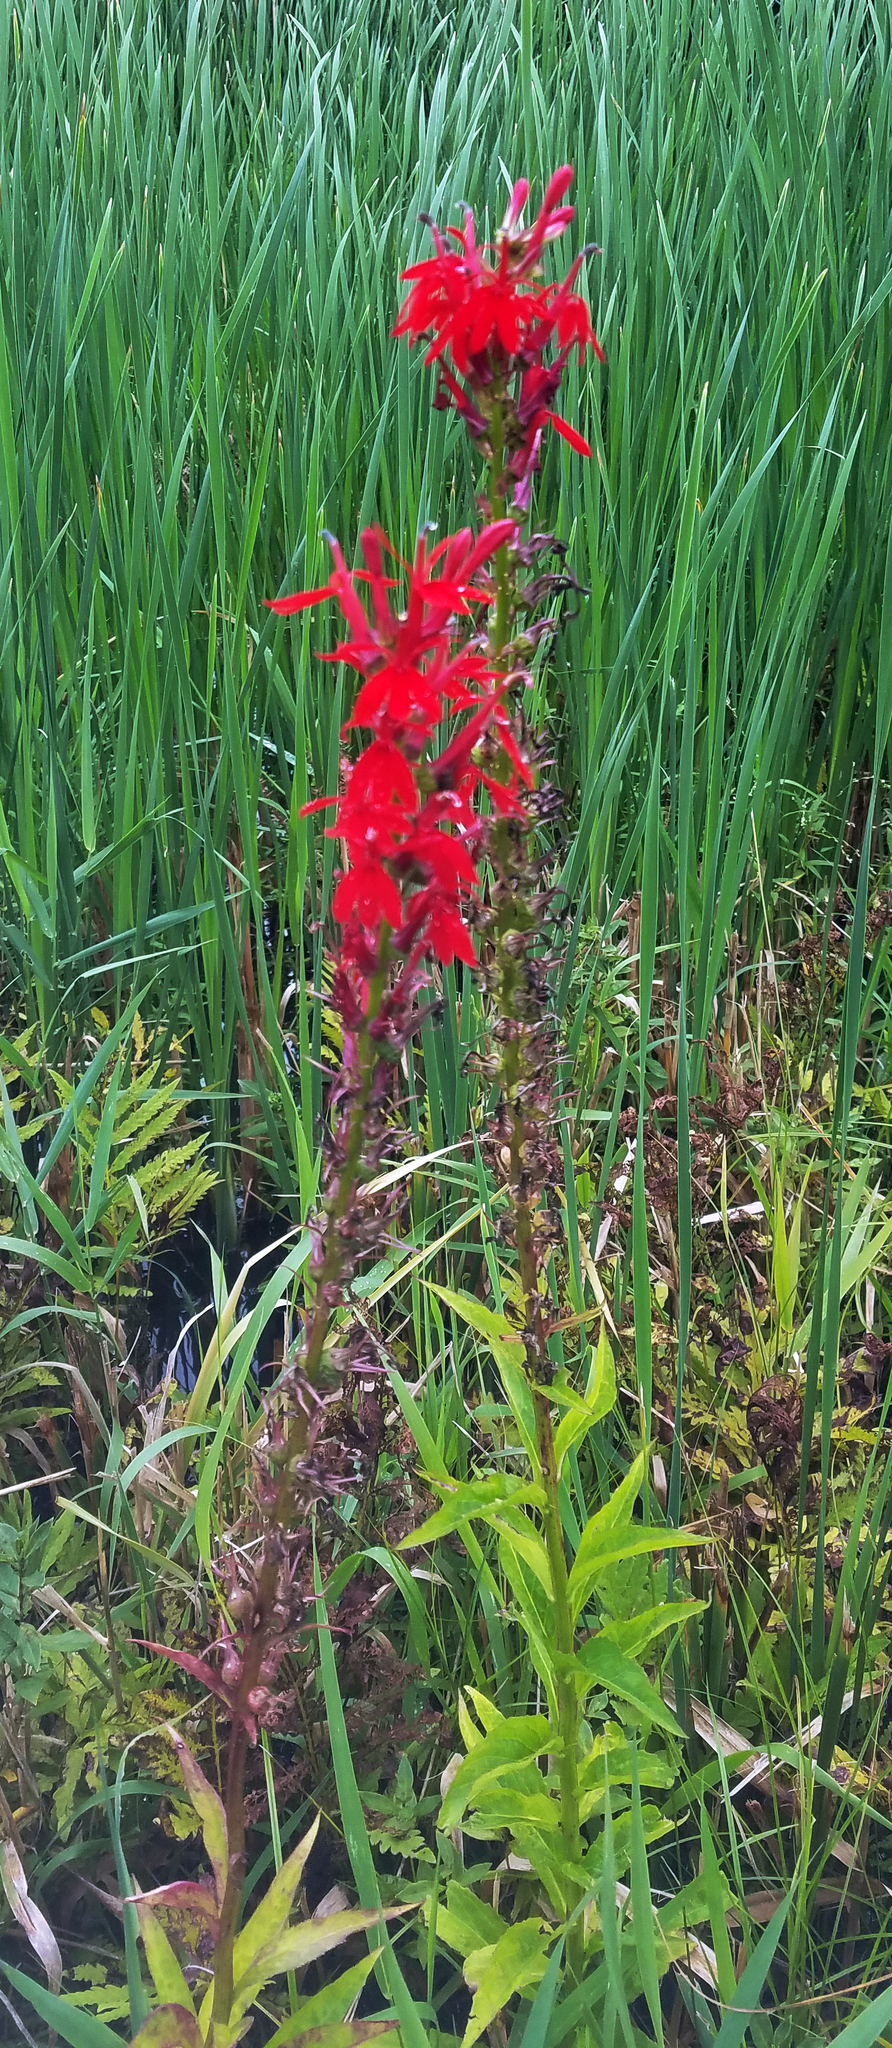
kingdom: Plantae
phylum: Tracheophyta
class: Magnoliopsida
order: Asterales
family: Campanulaceae
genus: Lobelia
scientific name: Lobelia cardinalis
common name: Cardinal flower
